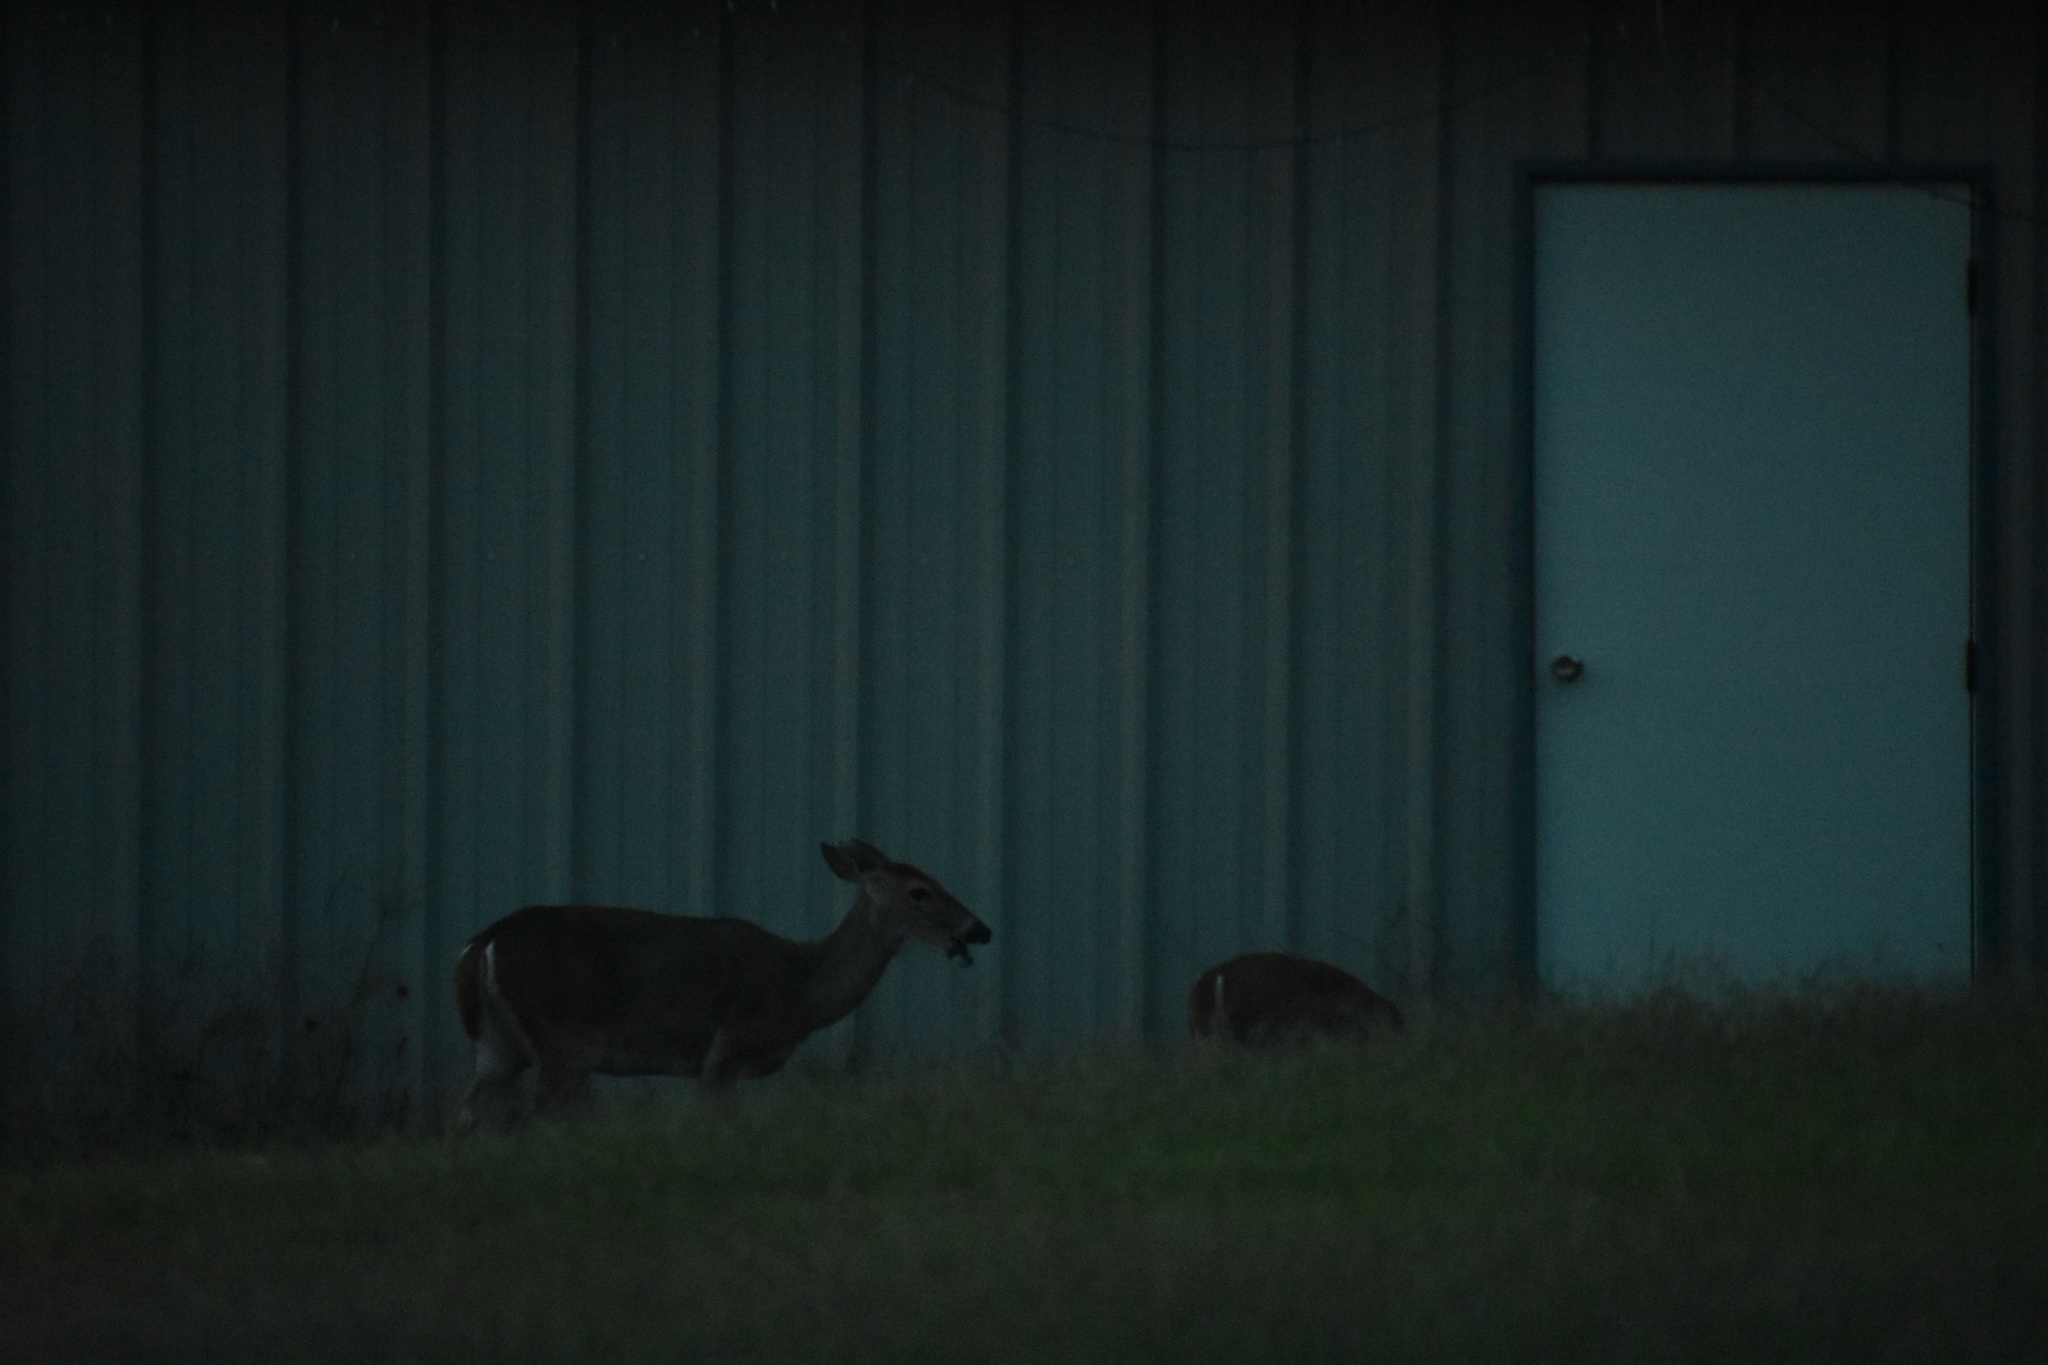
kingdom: Animalia
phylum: Chordata
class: Mammalia
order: Artiodactyla
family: Cervidae
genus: Odocoileus
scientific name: Odocoileus virginianus
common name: White-tailed deer
